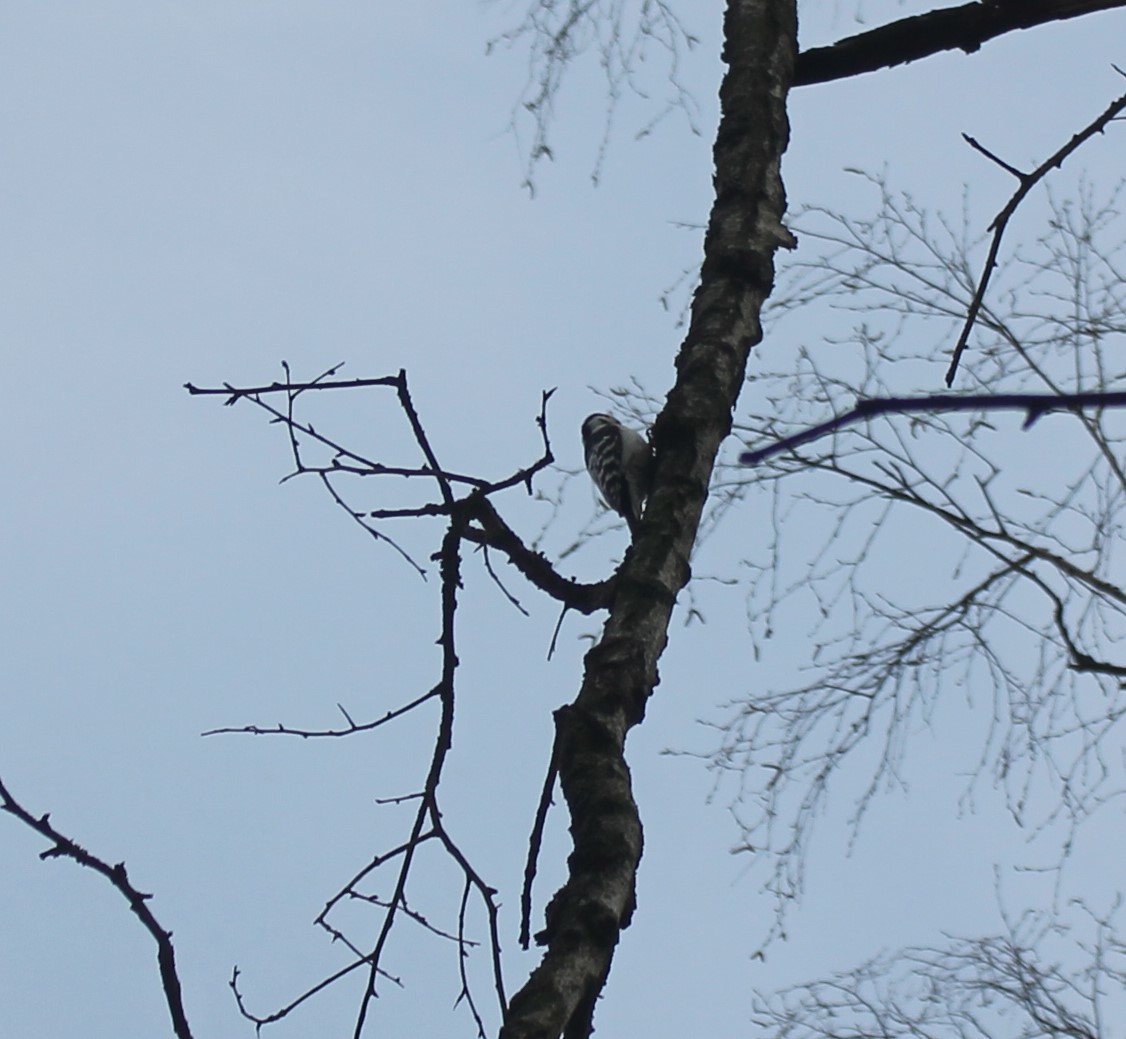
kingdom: Animalia
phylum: Chordata
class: Aves
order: Piciformes
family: Picidae
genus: Dryobates
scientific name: Dryobates minor
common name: Lesser spotted woodpecker
